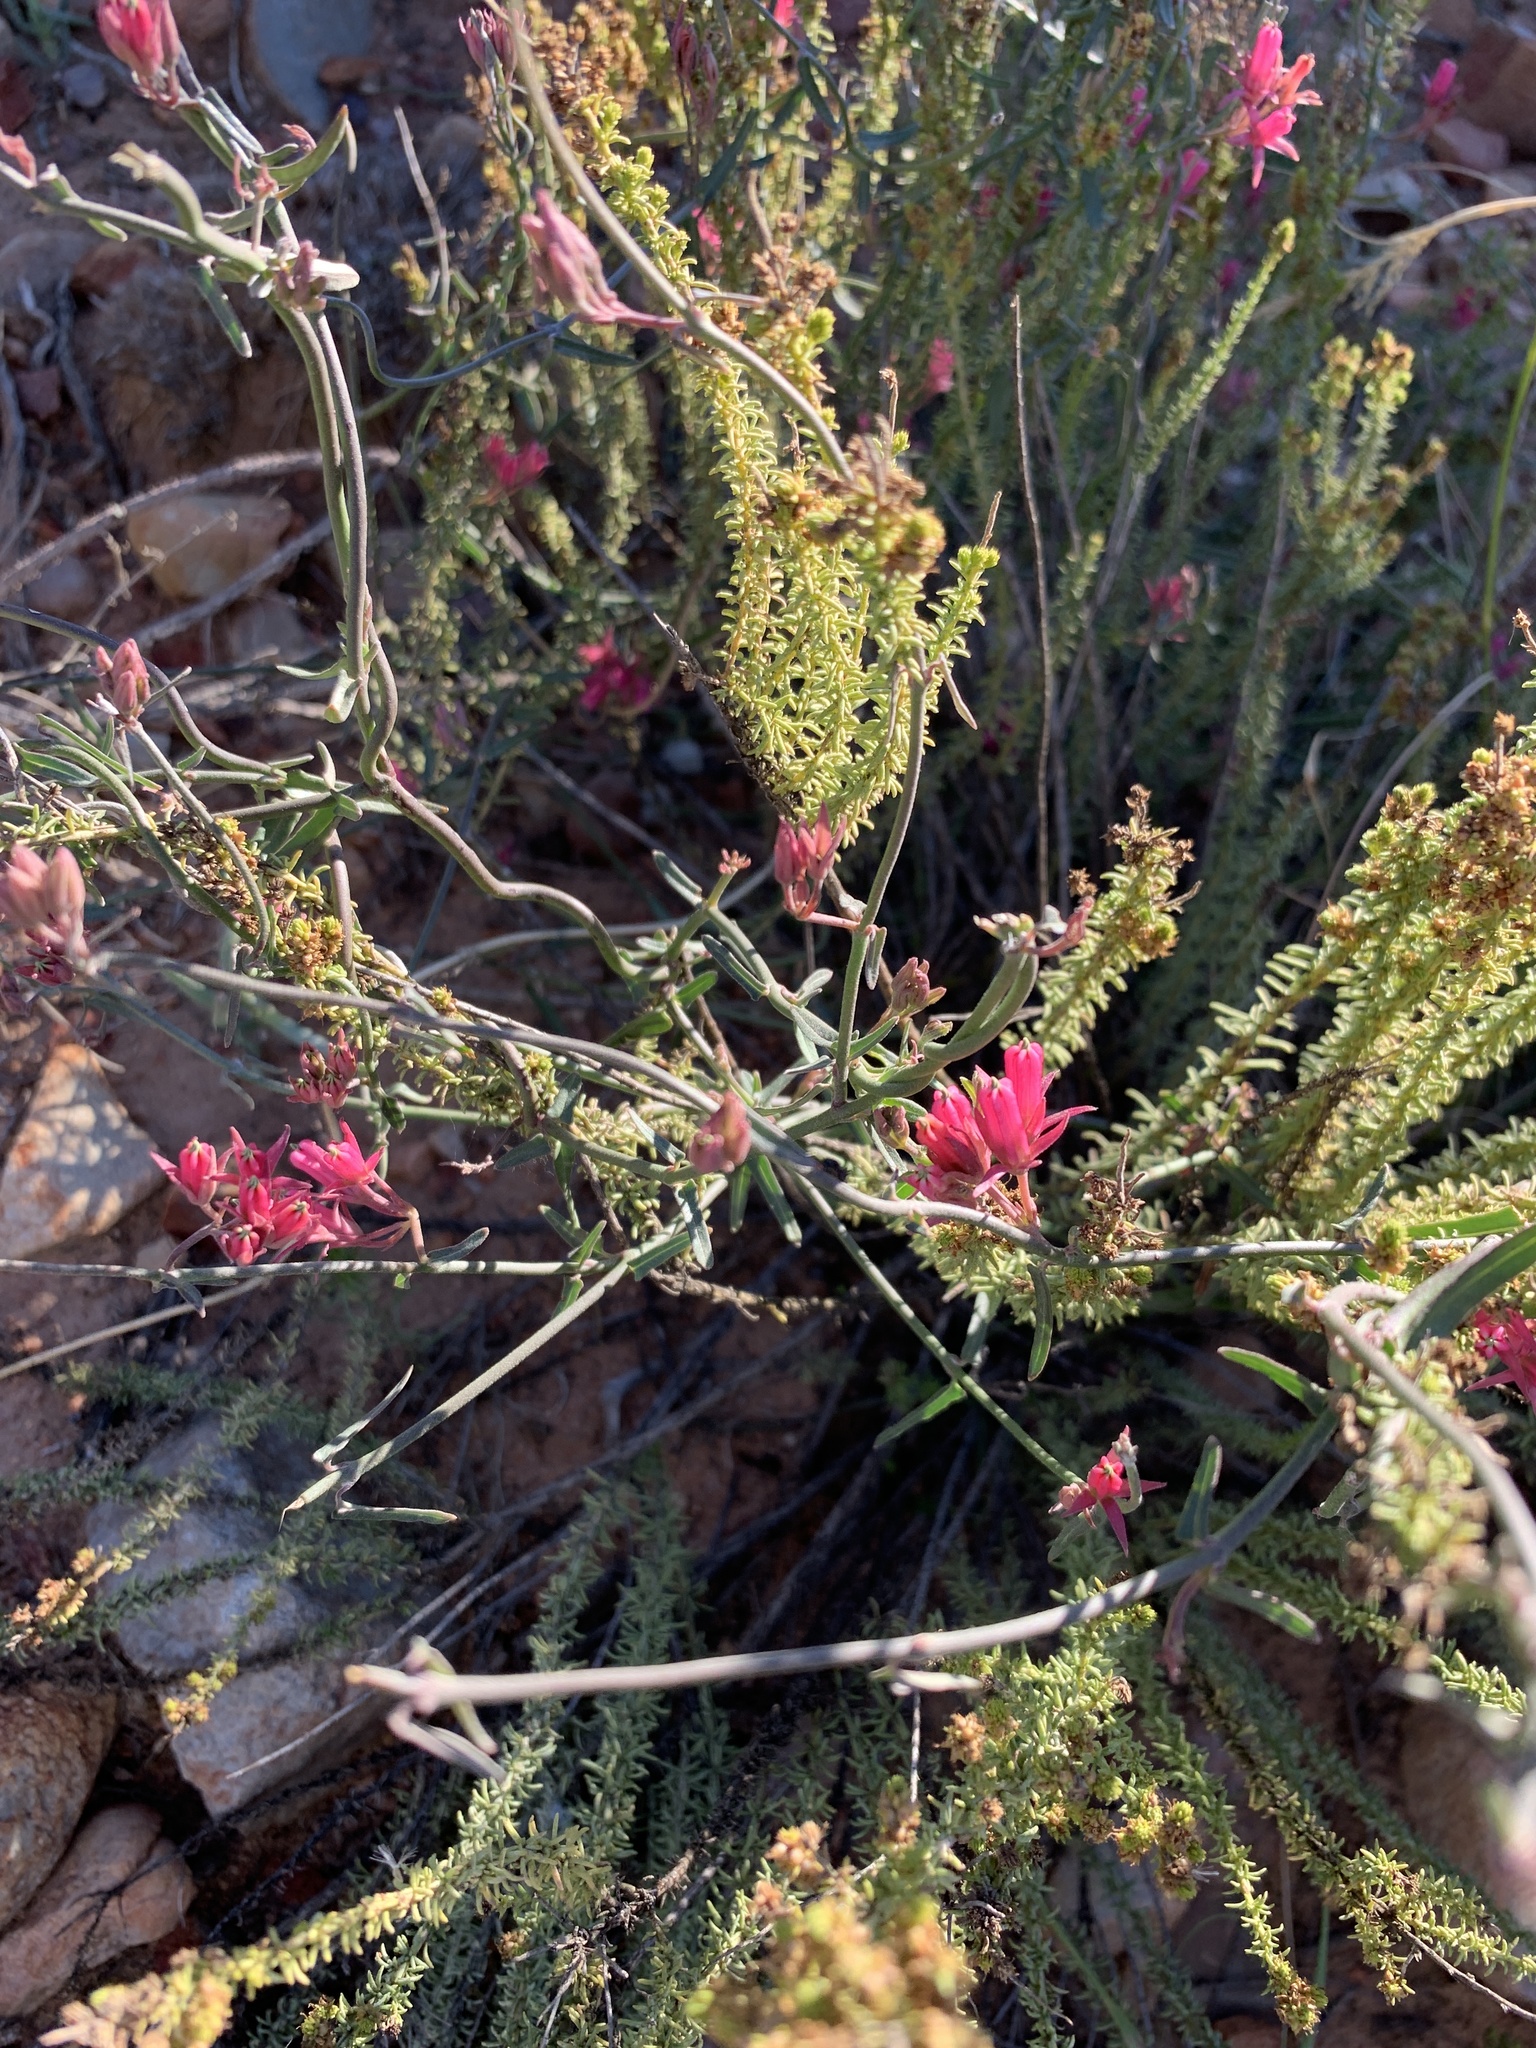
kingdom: Plantae
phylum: Tracheophyta
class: Magnoliopsida
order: Gentianales
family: Apocynaceae
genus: Microloma
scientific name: Microloma sagittatum
